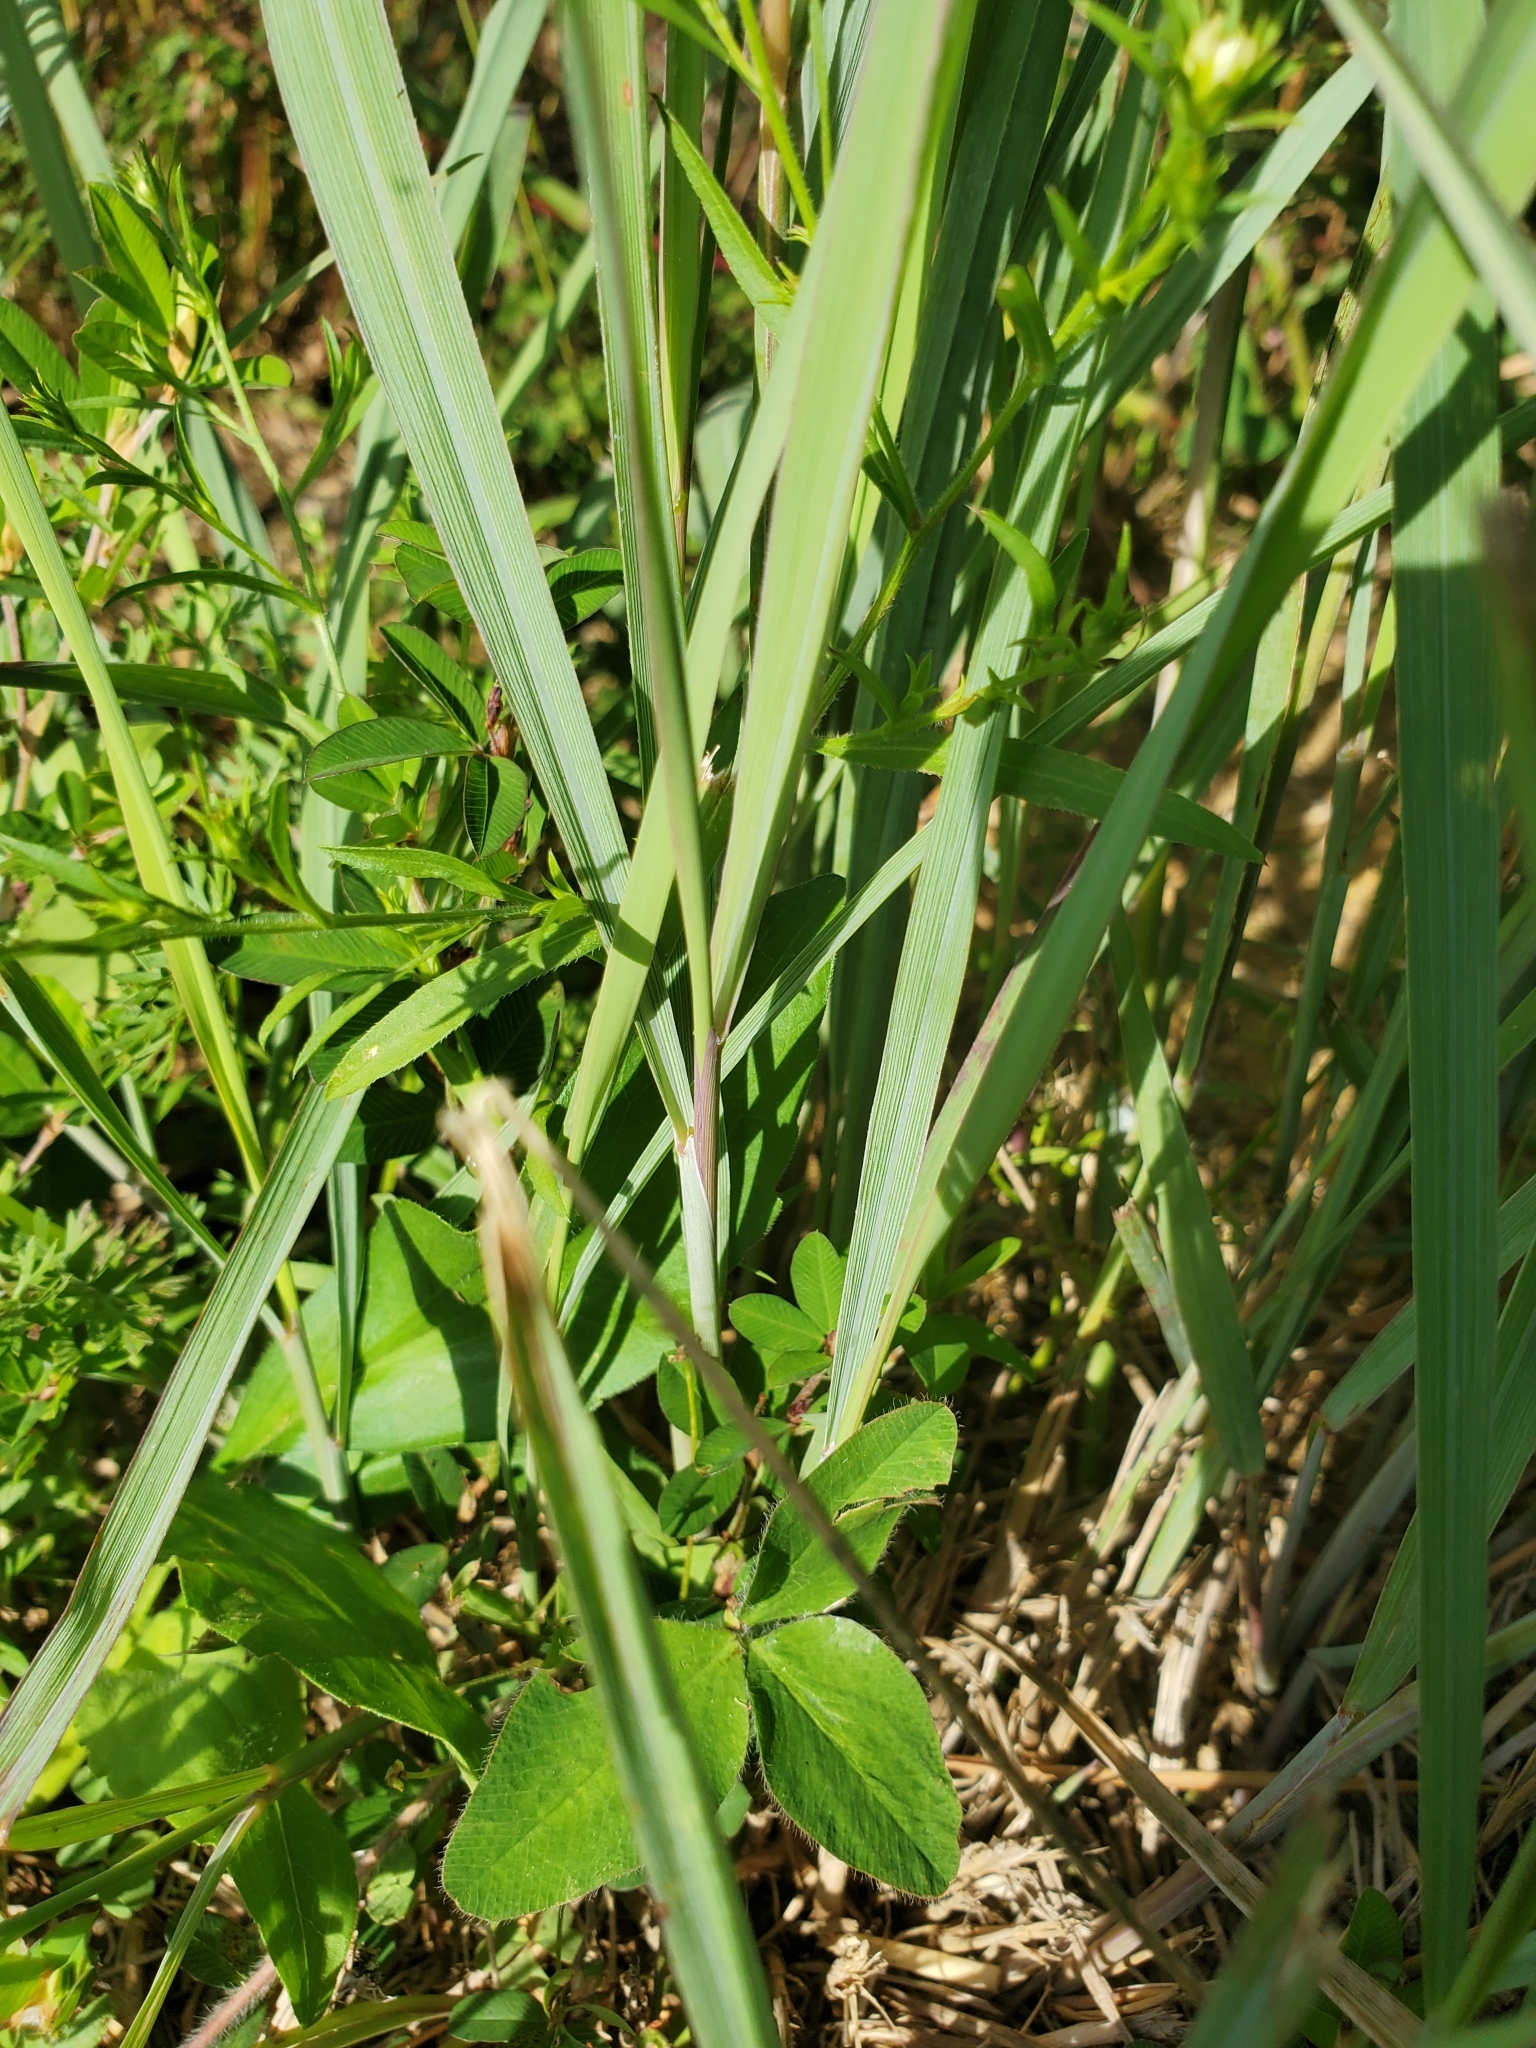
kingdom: Plantae
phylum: Tracheophyta
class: Liliopsida
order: Poales
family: Poaceae
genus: Sorghastrum
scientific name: Sorghastrum nutans
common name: Indian grass
